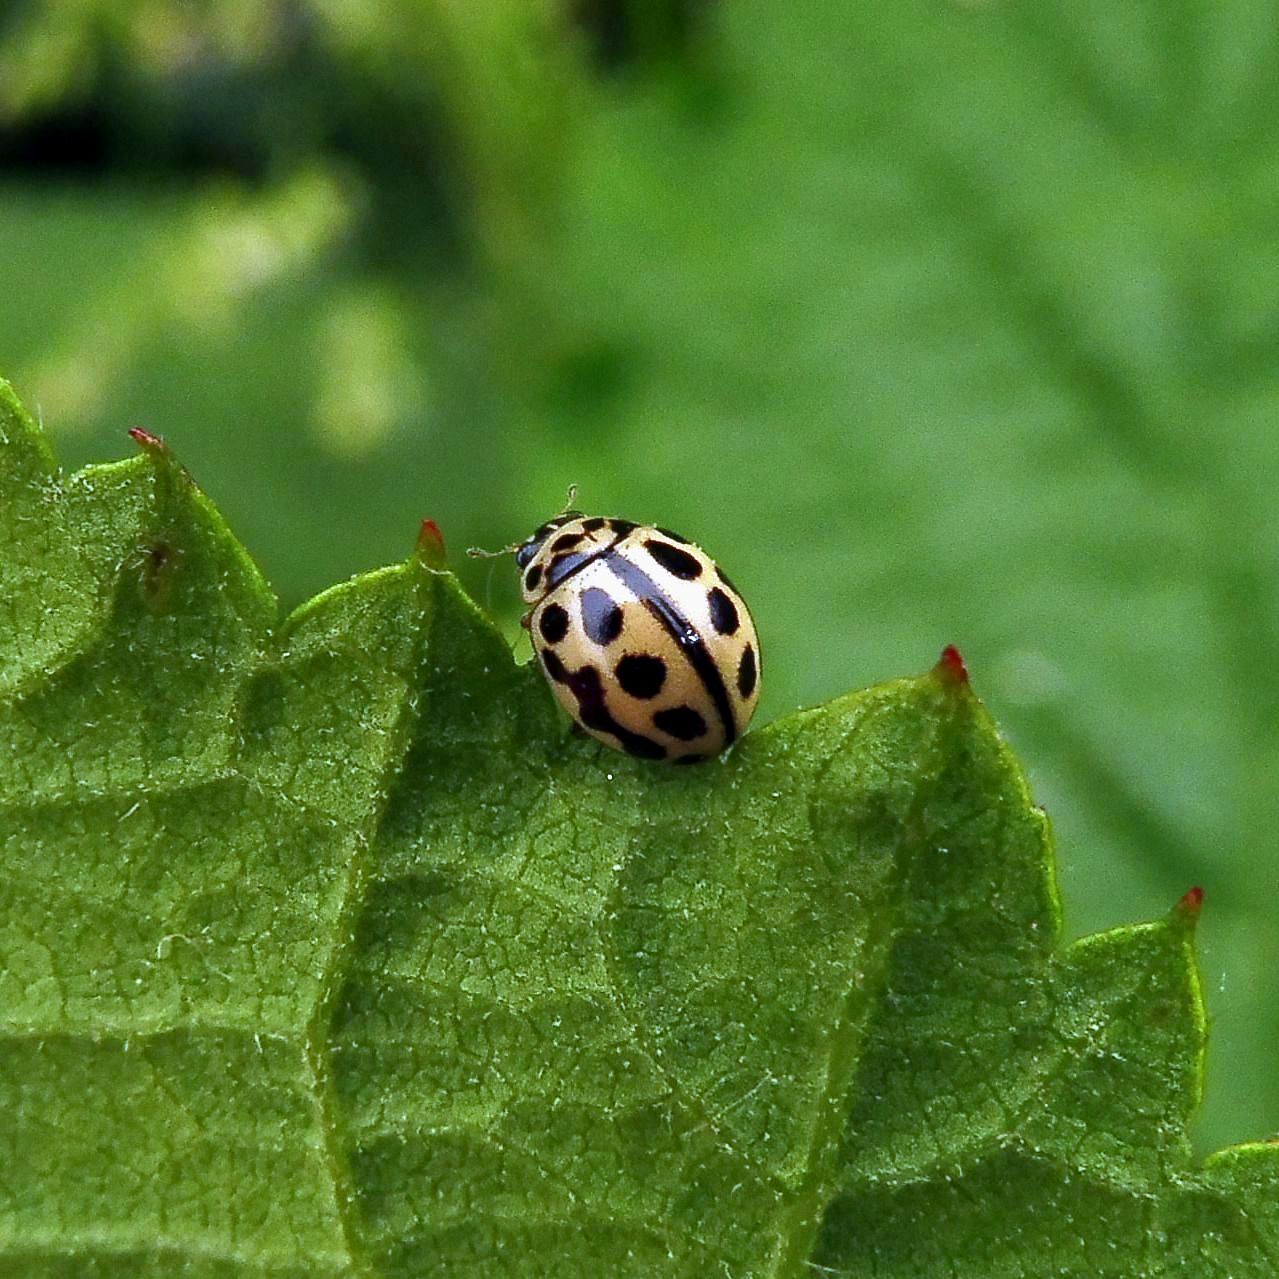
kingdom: Animalia
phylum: Arthropoda
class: Insecta
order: Coleoptera
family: Coccinellidae
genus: Tytthaspis
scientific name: Tytthaspis sedecimpunctata
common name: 16-spot ladybird
